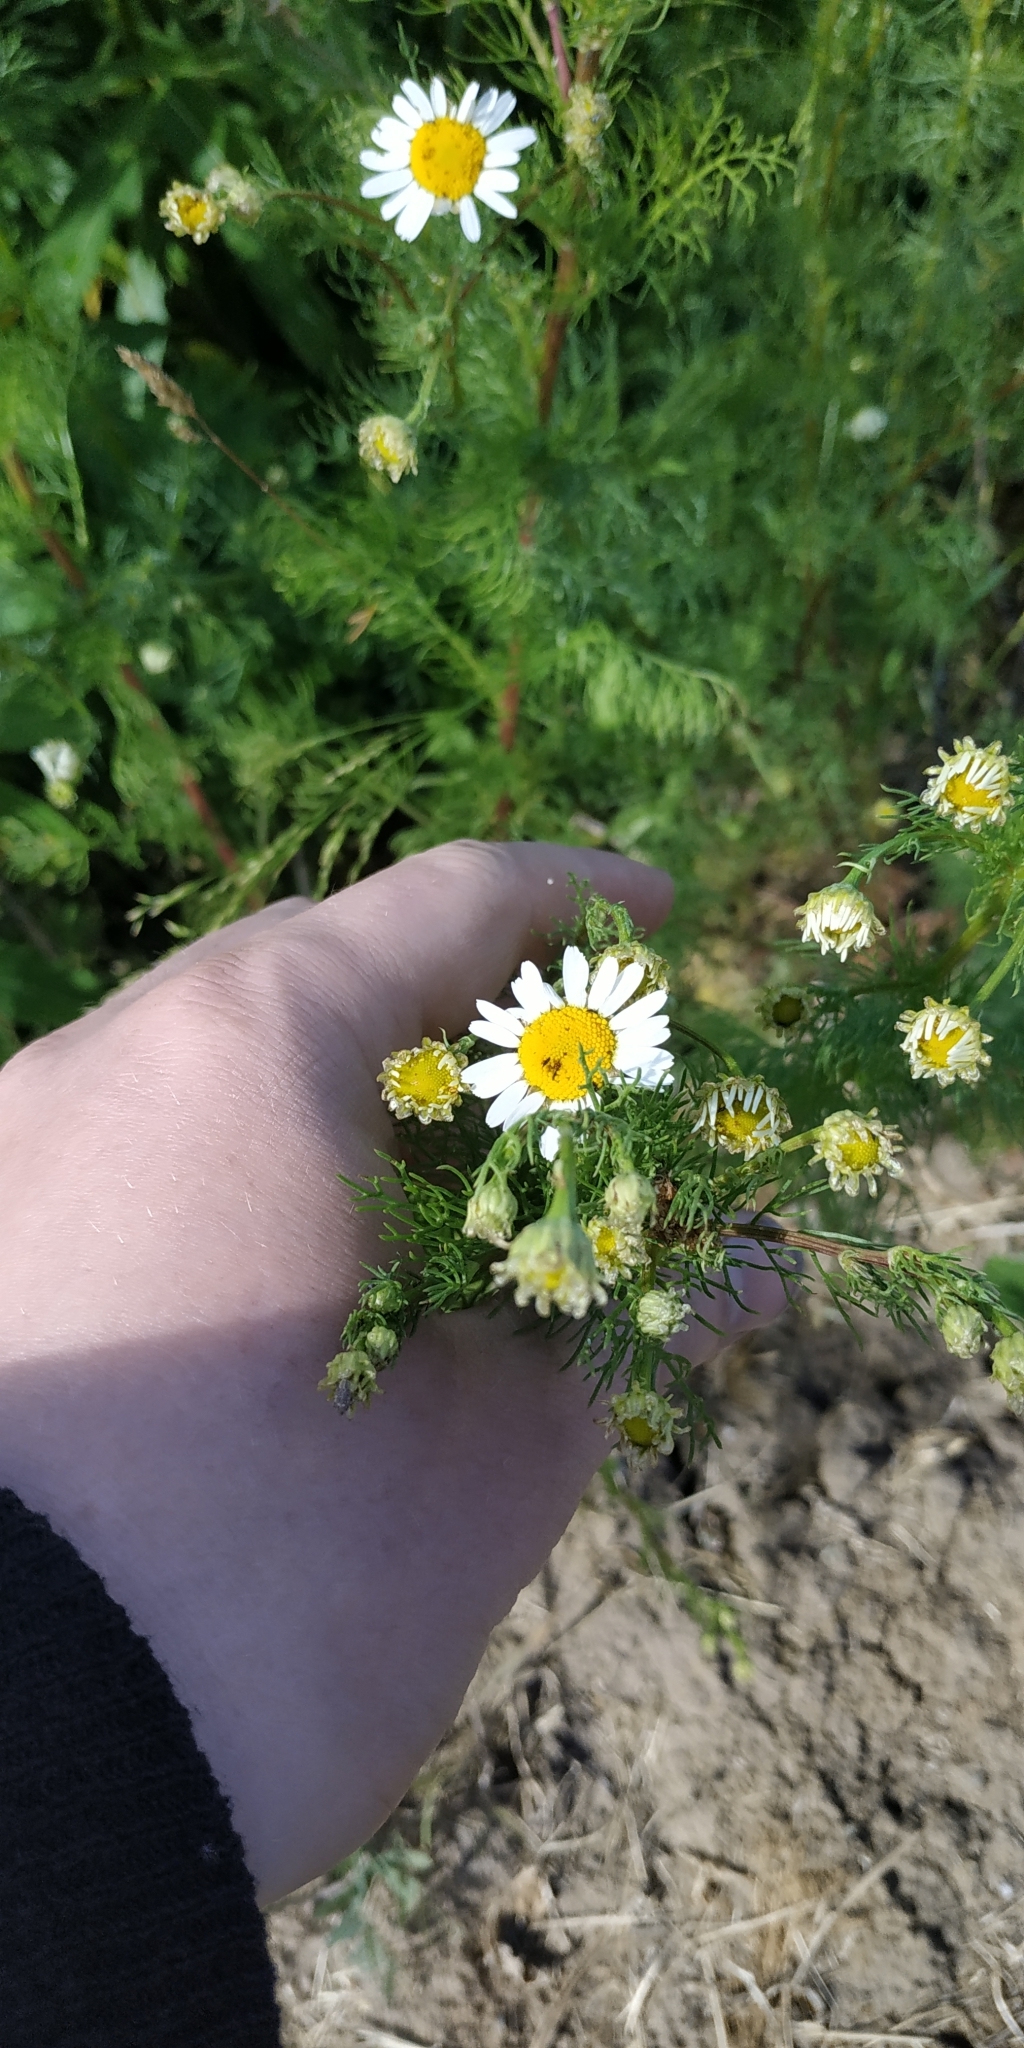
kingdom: Plantae
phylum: Tracheophyta
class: Magnoliopsida
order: Asterales
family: Asteraceae
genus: Tripleurospermum
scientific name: Tripleurospermum inodorum
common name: Scentless mayweed
